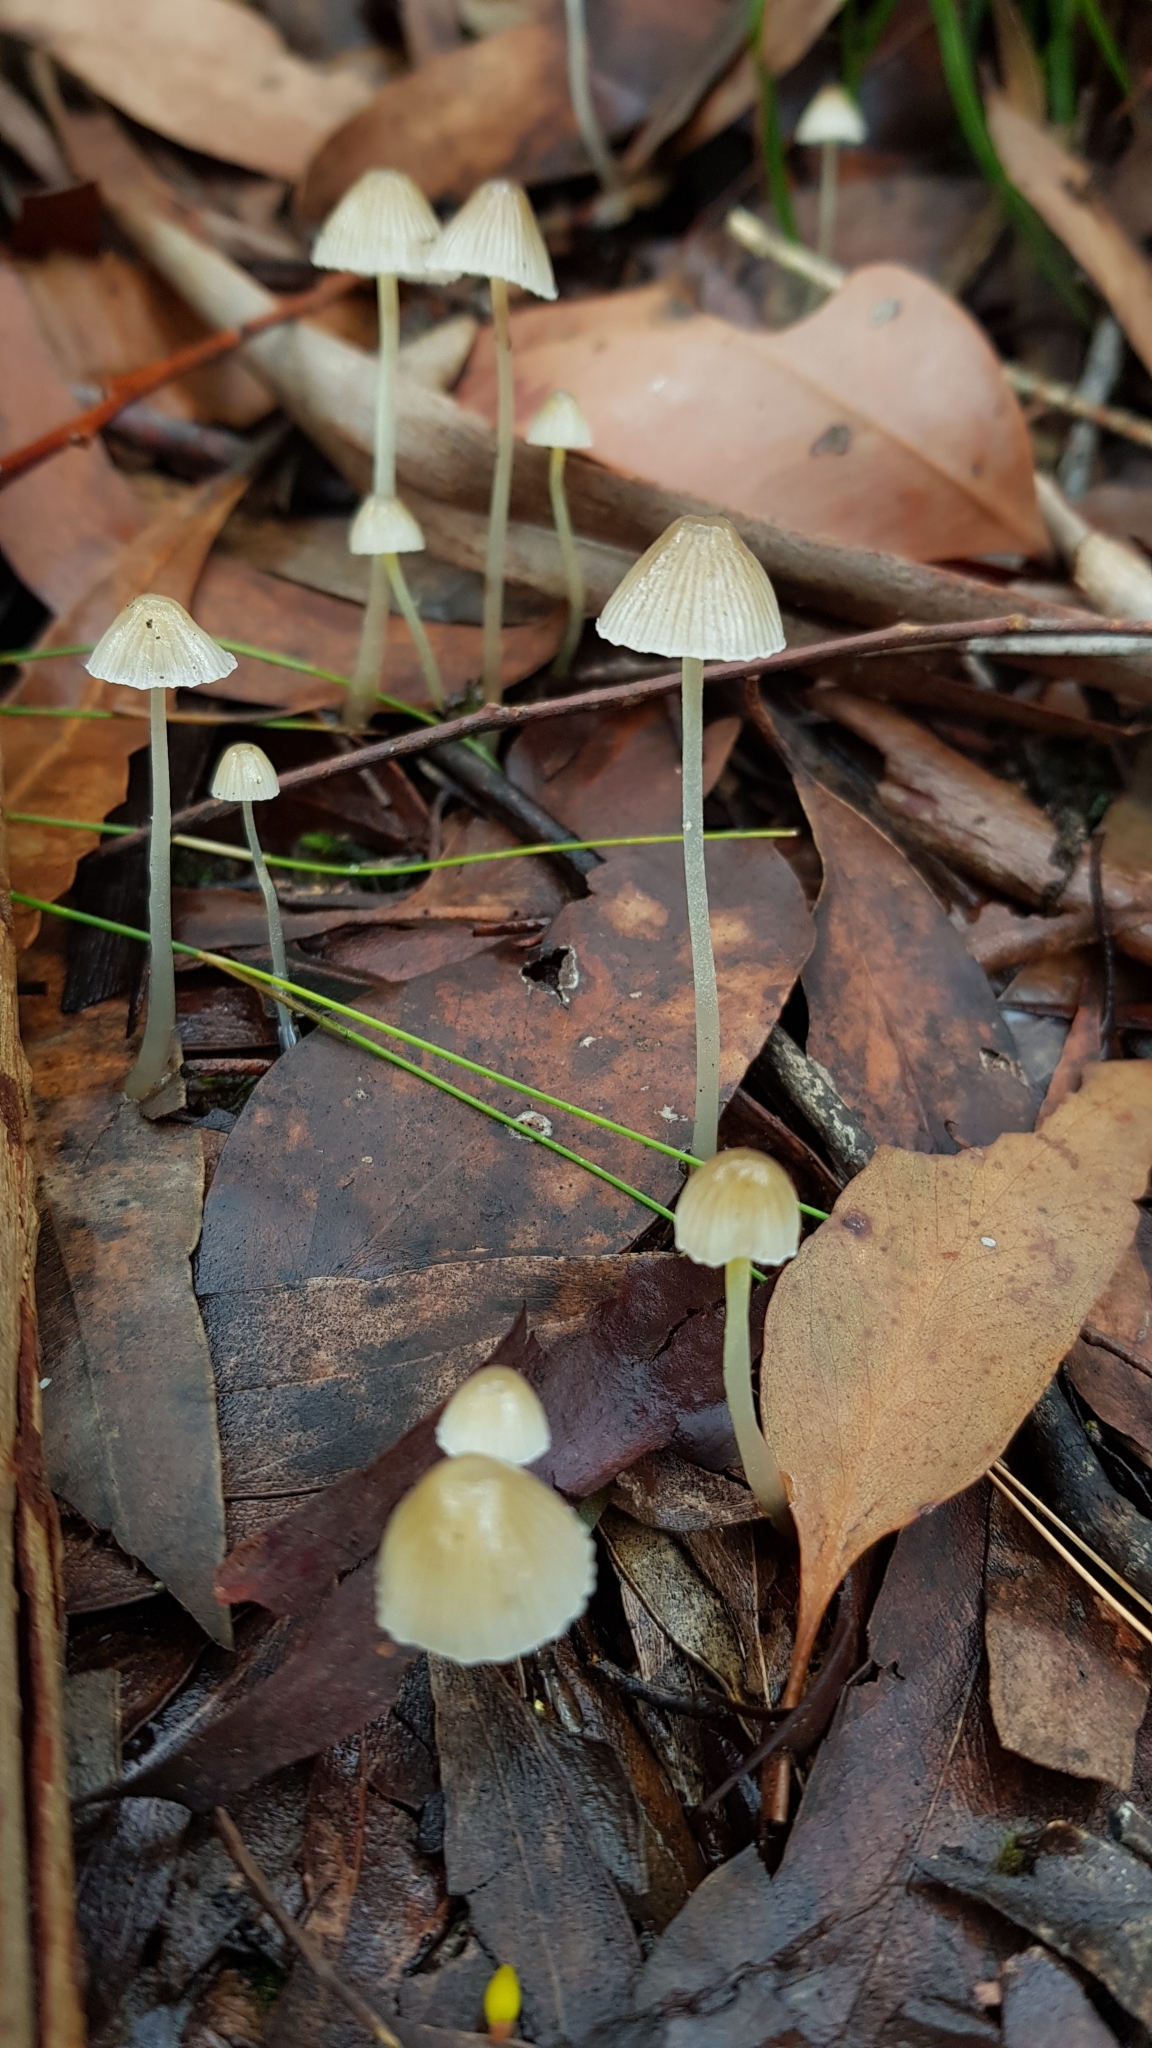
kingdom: Fungi
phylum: Basidiomycota
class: Agaricomycetes
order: Agaricales
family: Mycenaceae
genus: Mycena
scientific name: Mycena epipterygia
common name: Yellowleg bonnet
